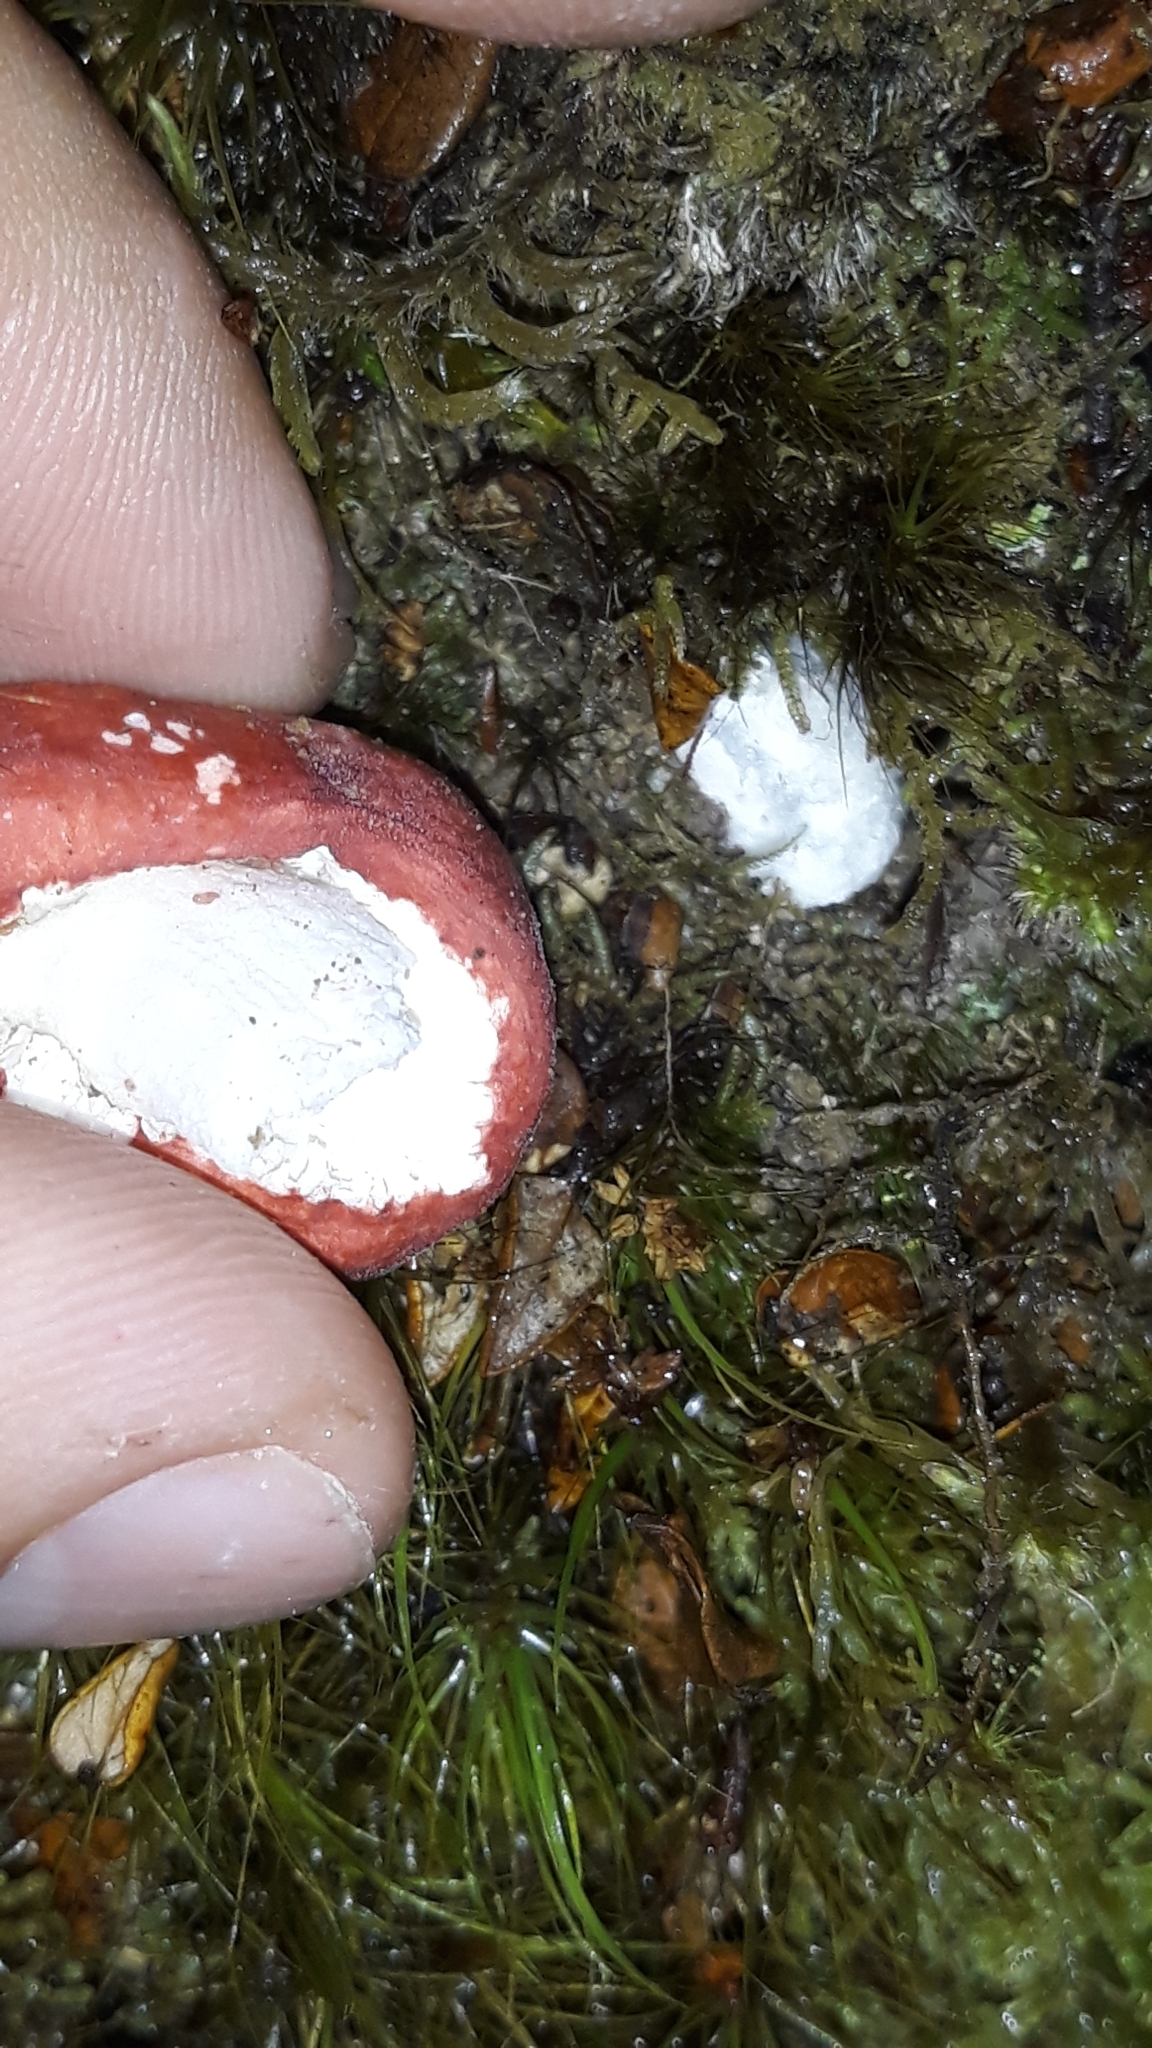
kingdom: Fungi
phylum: Basidiomycota
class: Agaricomycetes
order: Russulales
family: Russulaceae
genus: Russula
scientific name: Russula kermesina
